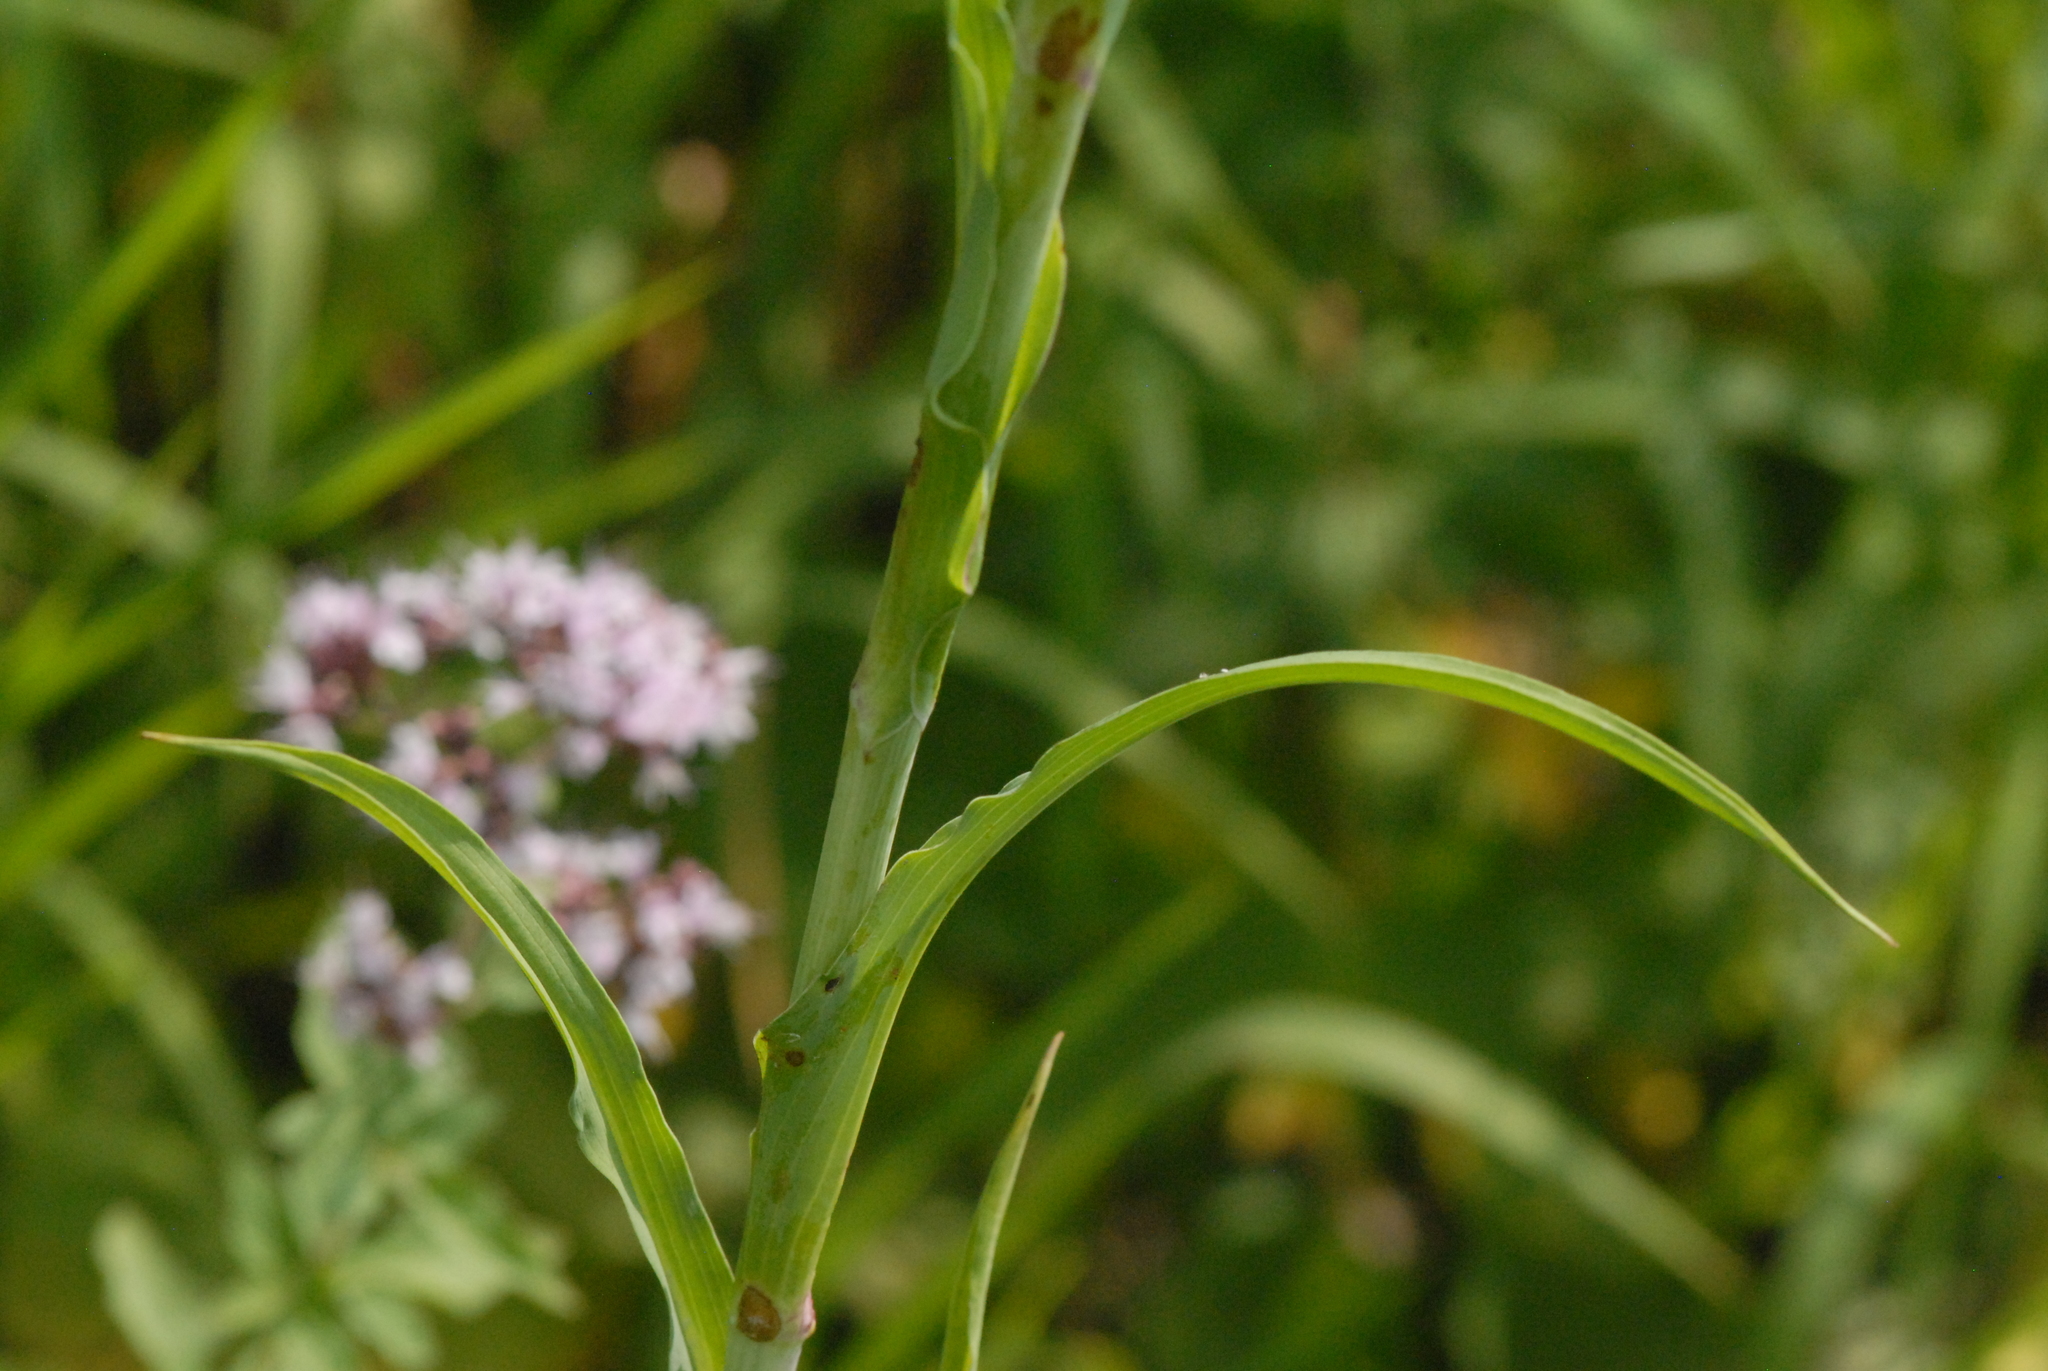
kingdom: Plantae
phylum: Tracheophyta
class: Magnoliopsida
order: Asterales
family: Asteraceae
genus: Tragopogon
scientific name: Tragopogon orientalis
